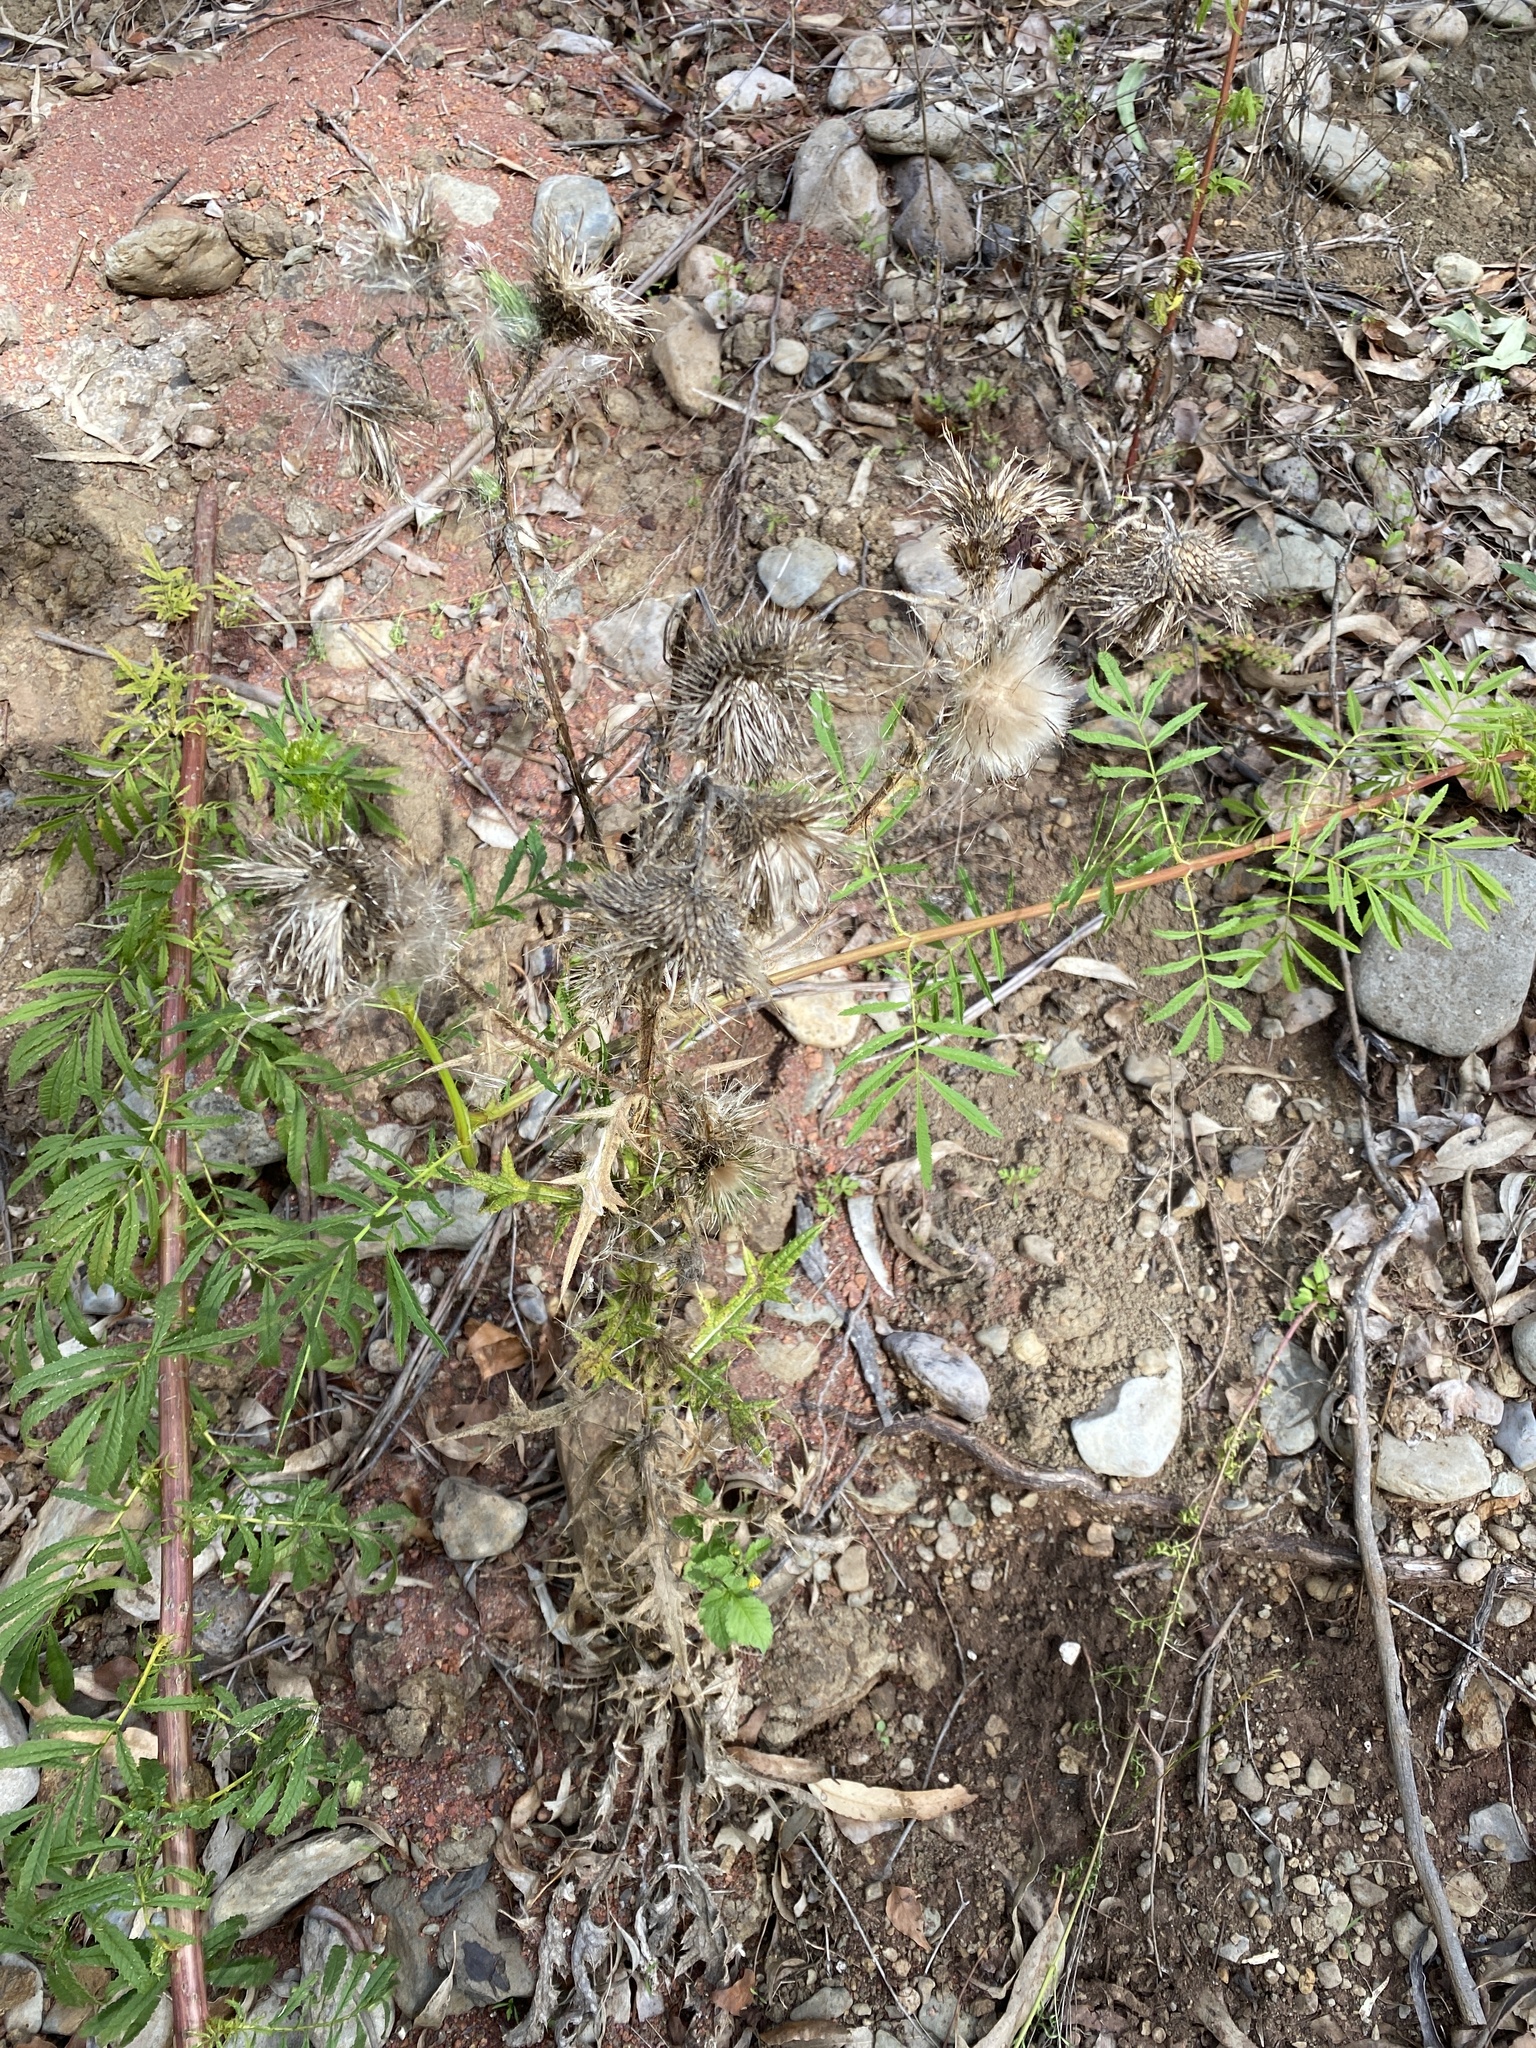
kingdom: Plantae
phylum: Tracheophyta
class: Magnoliopsida
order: Asterales
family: Asteraceae
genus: Cirsium
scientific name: Cirsium vulgare
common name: Bull thistle
